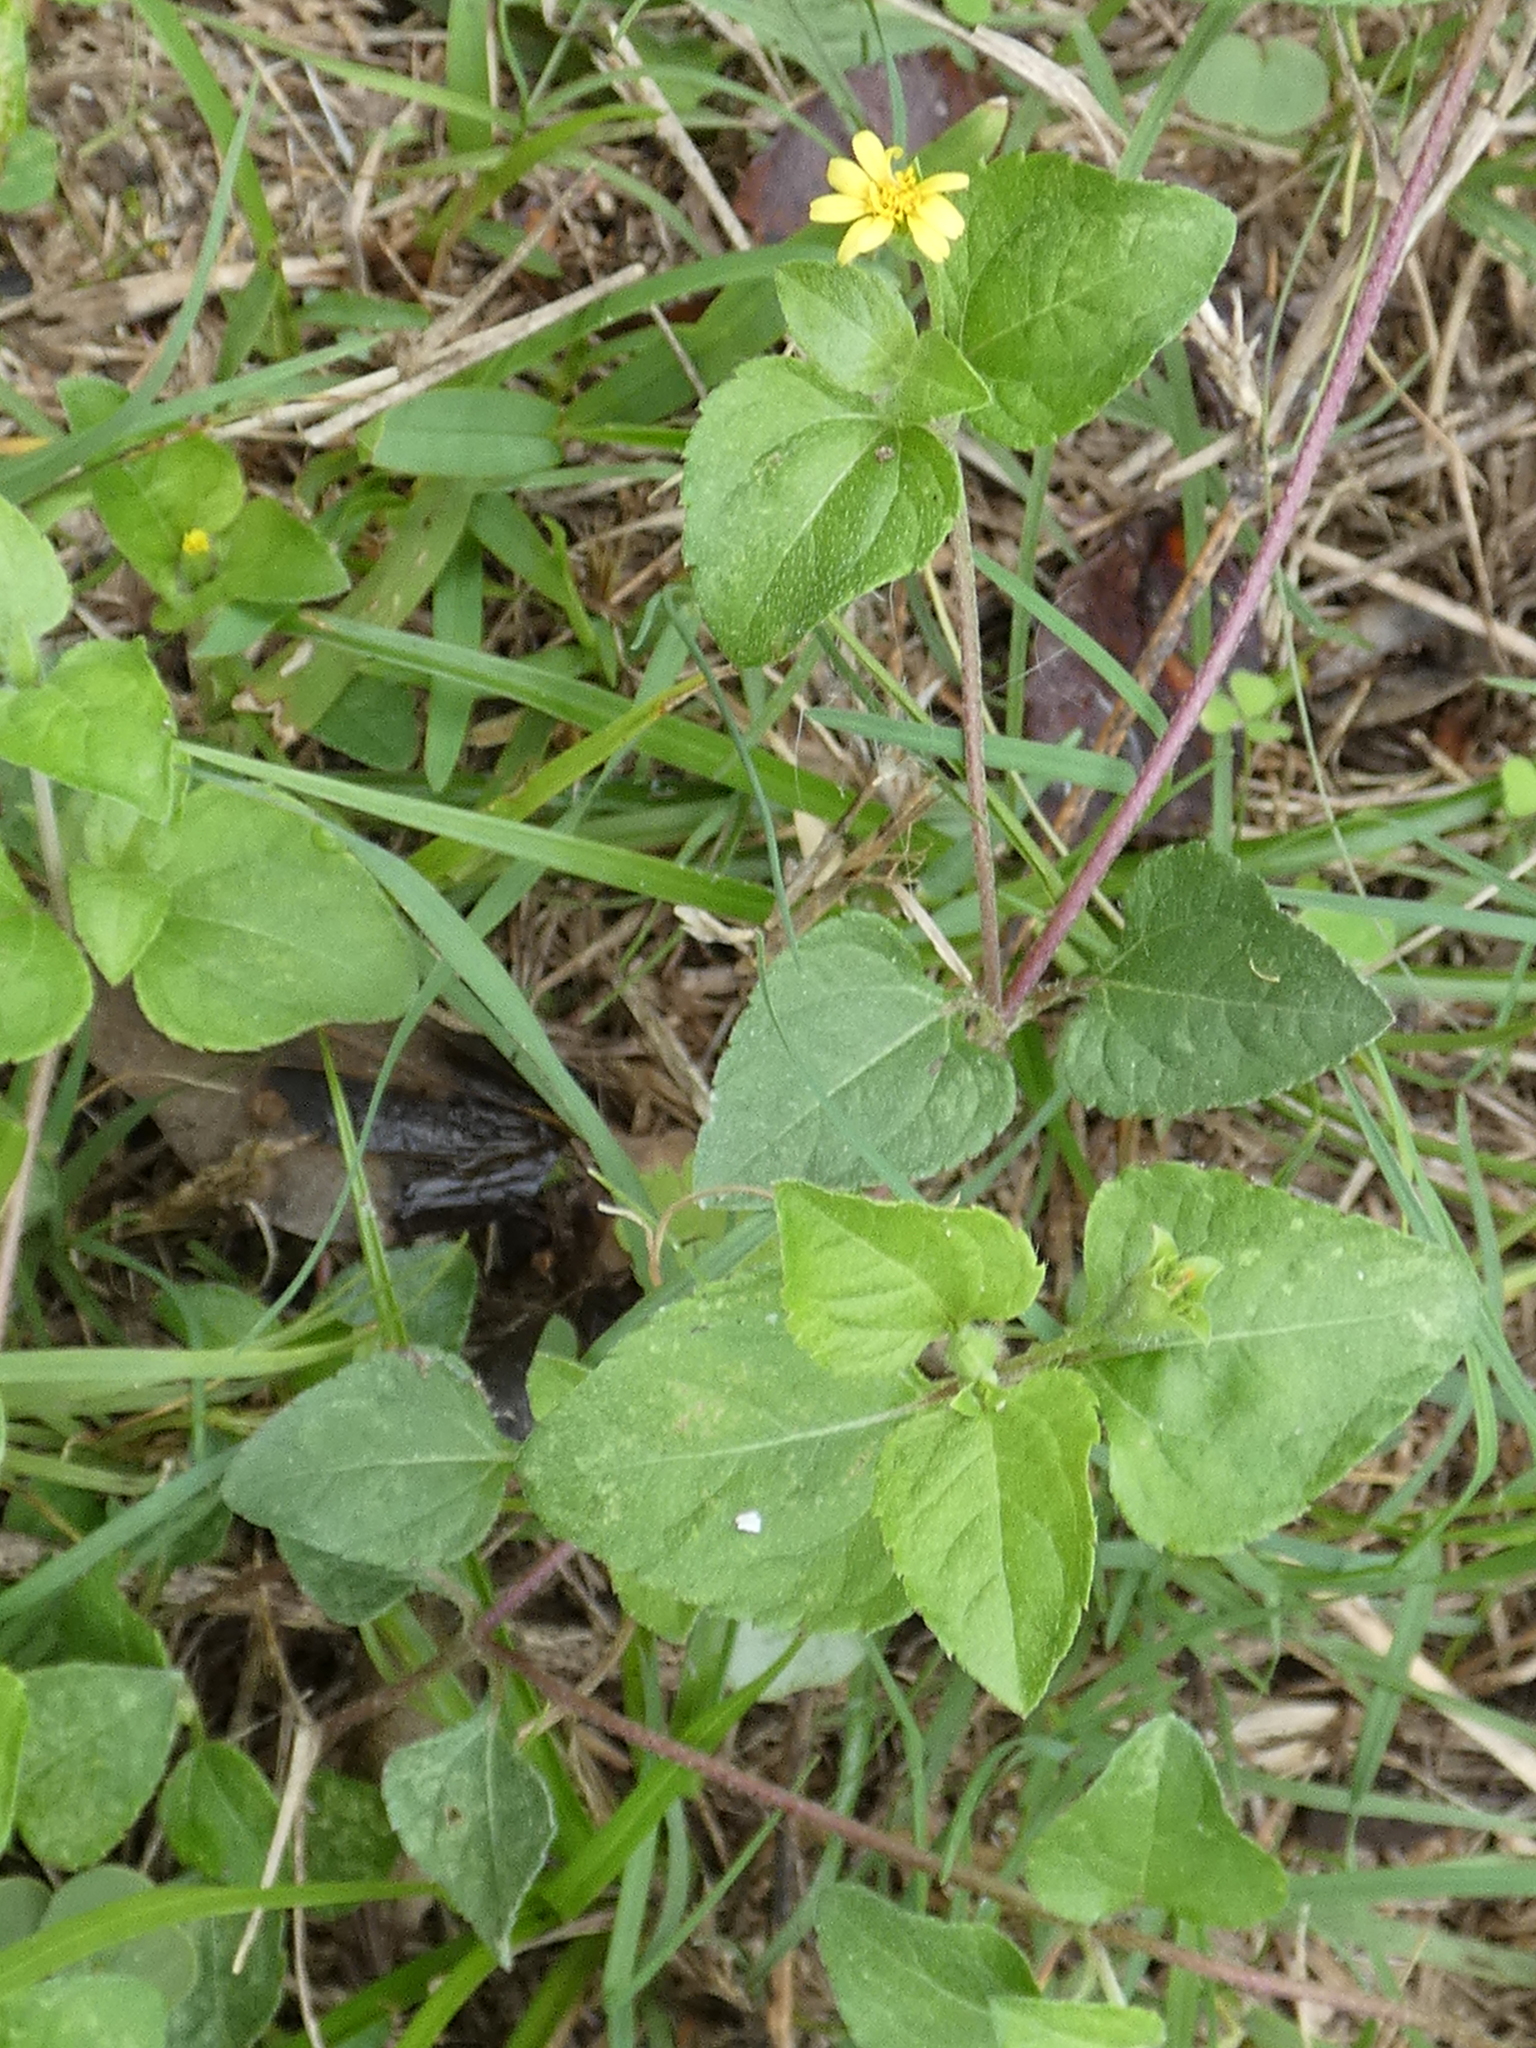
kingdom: Plantae
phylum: Tracheophyta
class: Magnoliopsida
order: Asterales
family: Asteraceae
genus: Calyptocarpus
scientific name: Calyptocarpus vialis
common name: Straggler daisy
